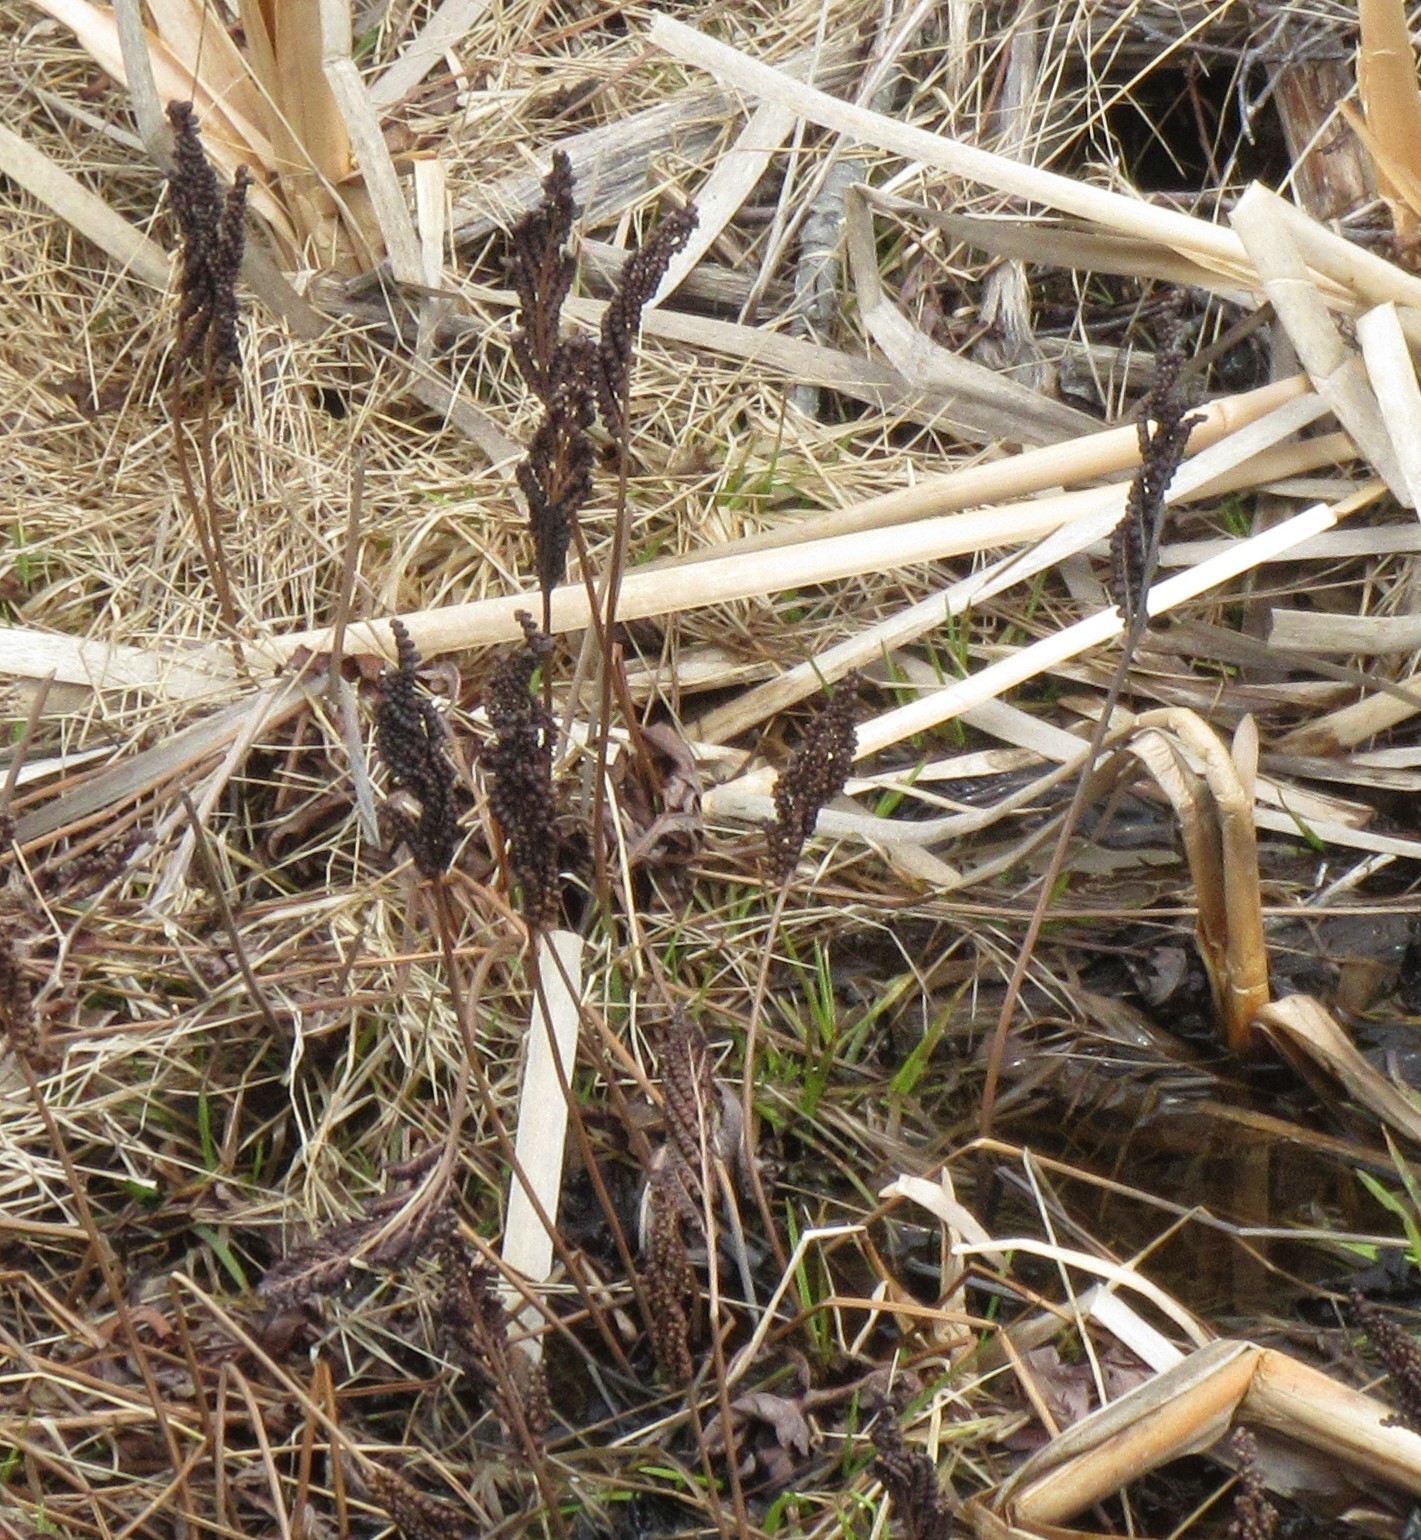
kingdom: Plantae
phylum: Tracheophyta
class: Polypodiopsida
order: Polypodiales
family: Onocleaceae
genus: Onoclea
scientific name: Onoclea sensibilis
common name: Sensitive fern
